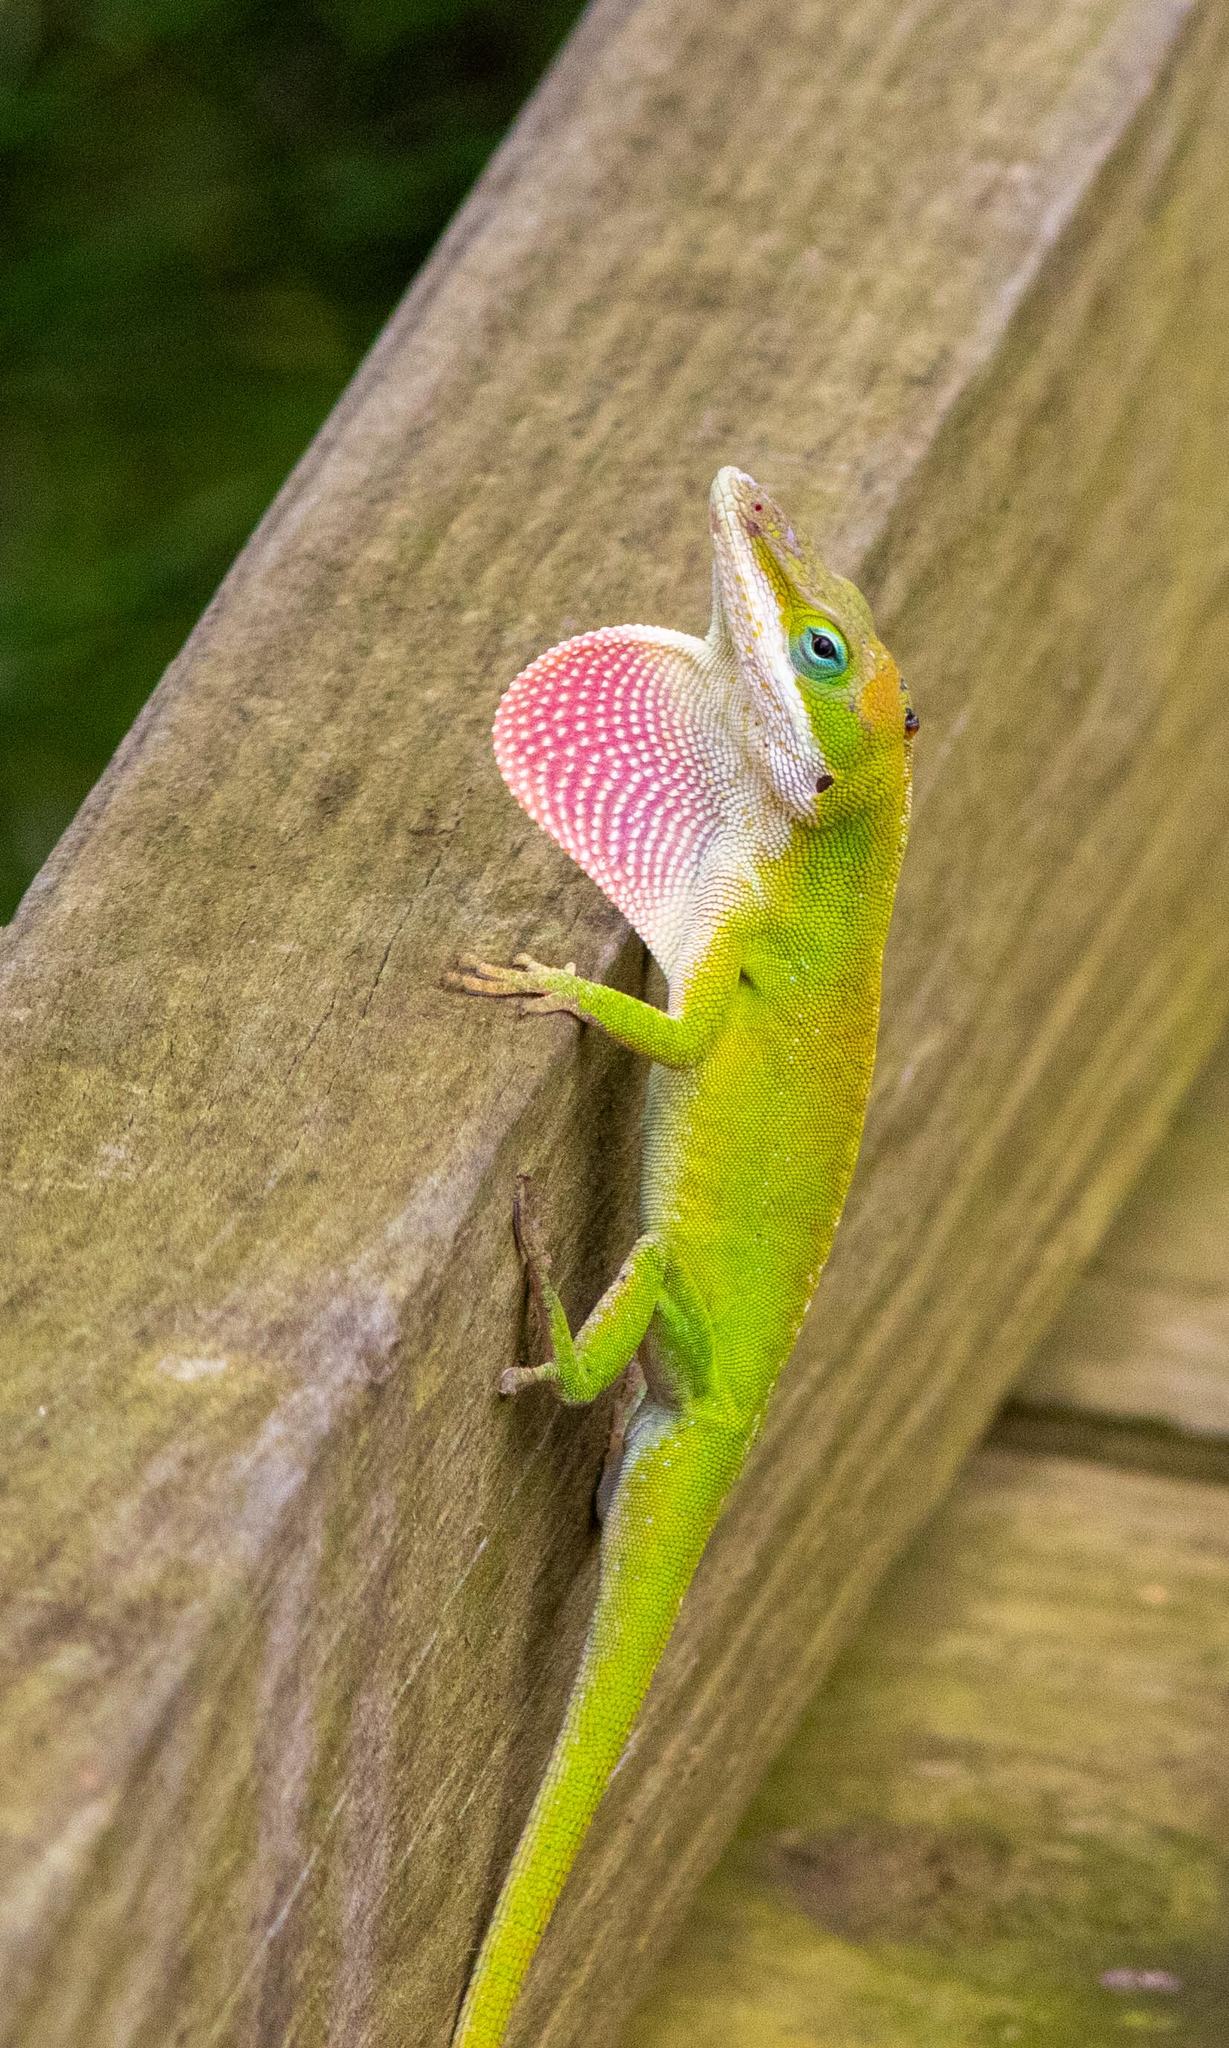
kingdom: Animalia
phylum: Chordata
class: Squamata
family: Dactyloidae
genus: Anolis
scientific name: Anolis carolinensis
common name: Green anole
